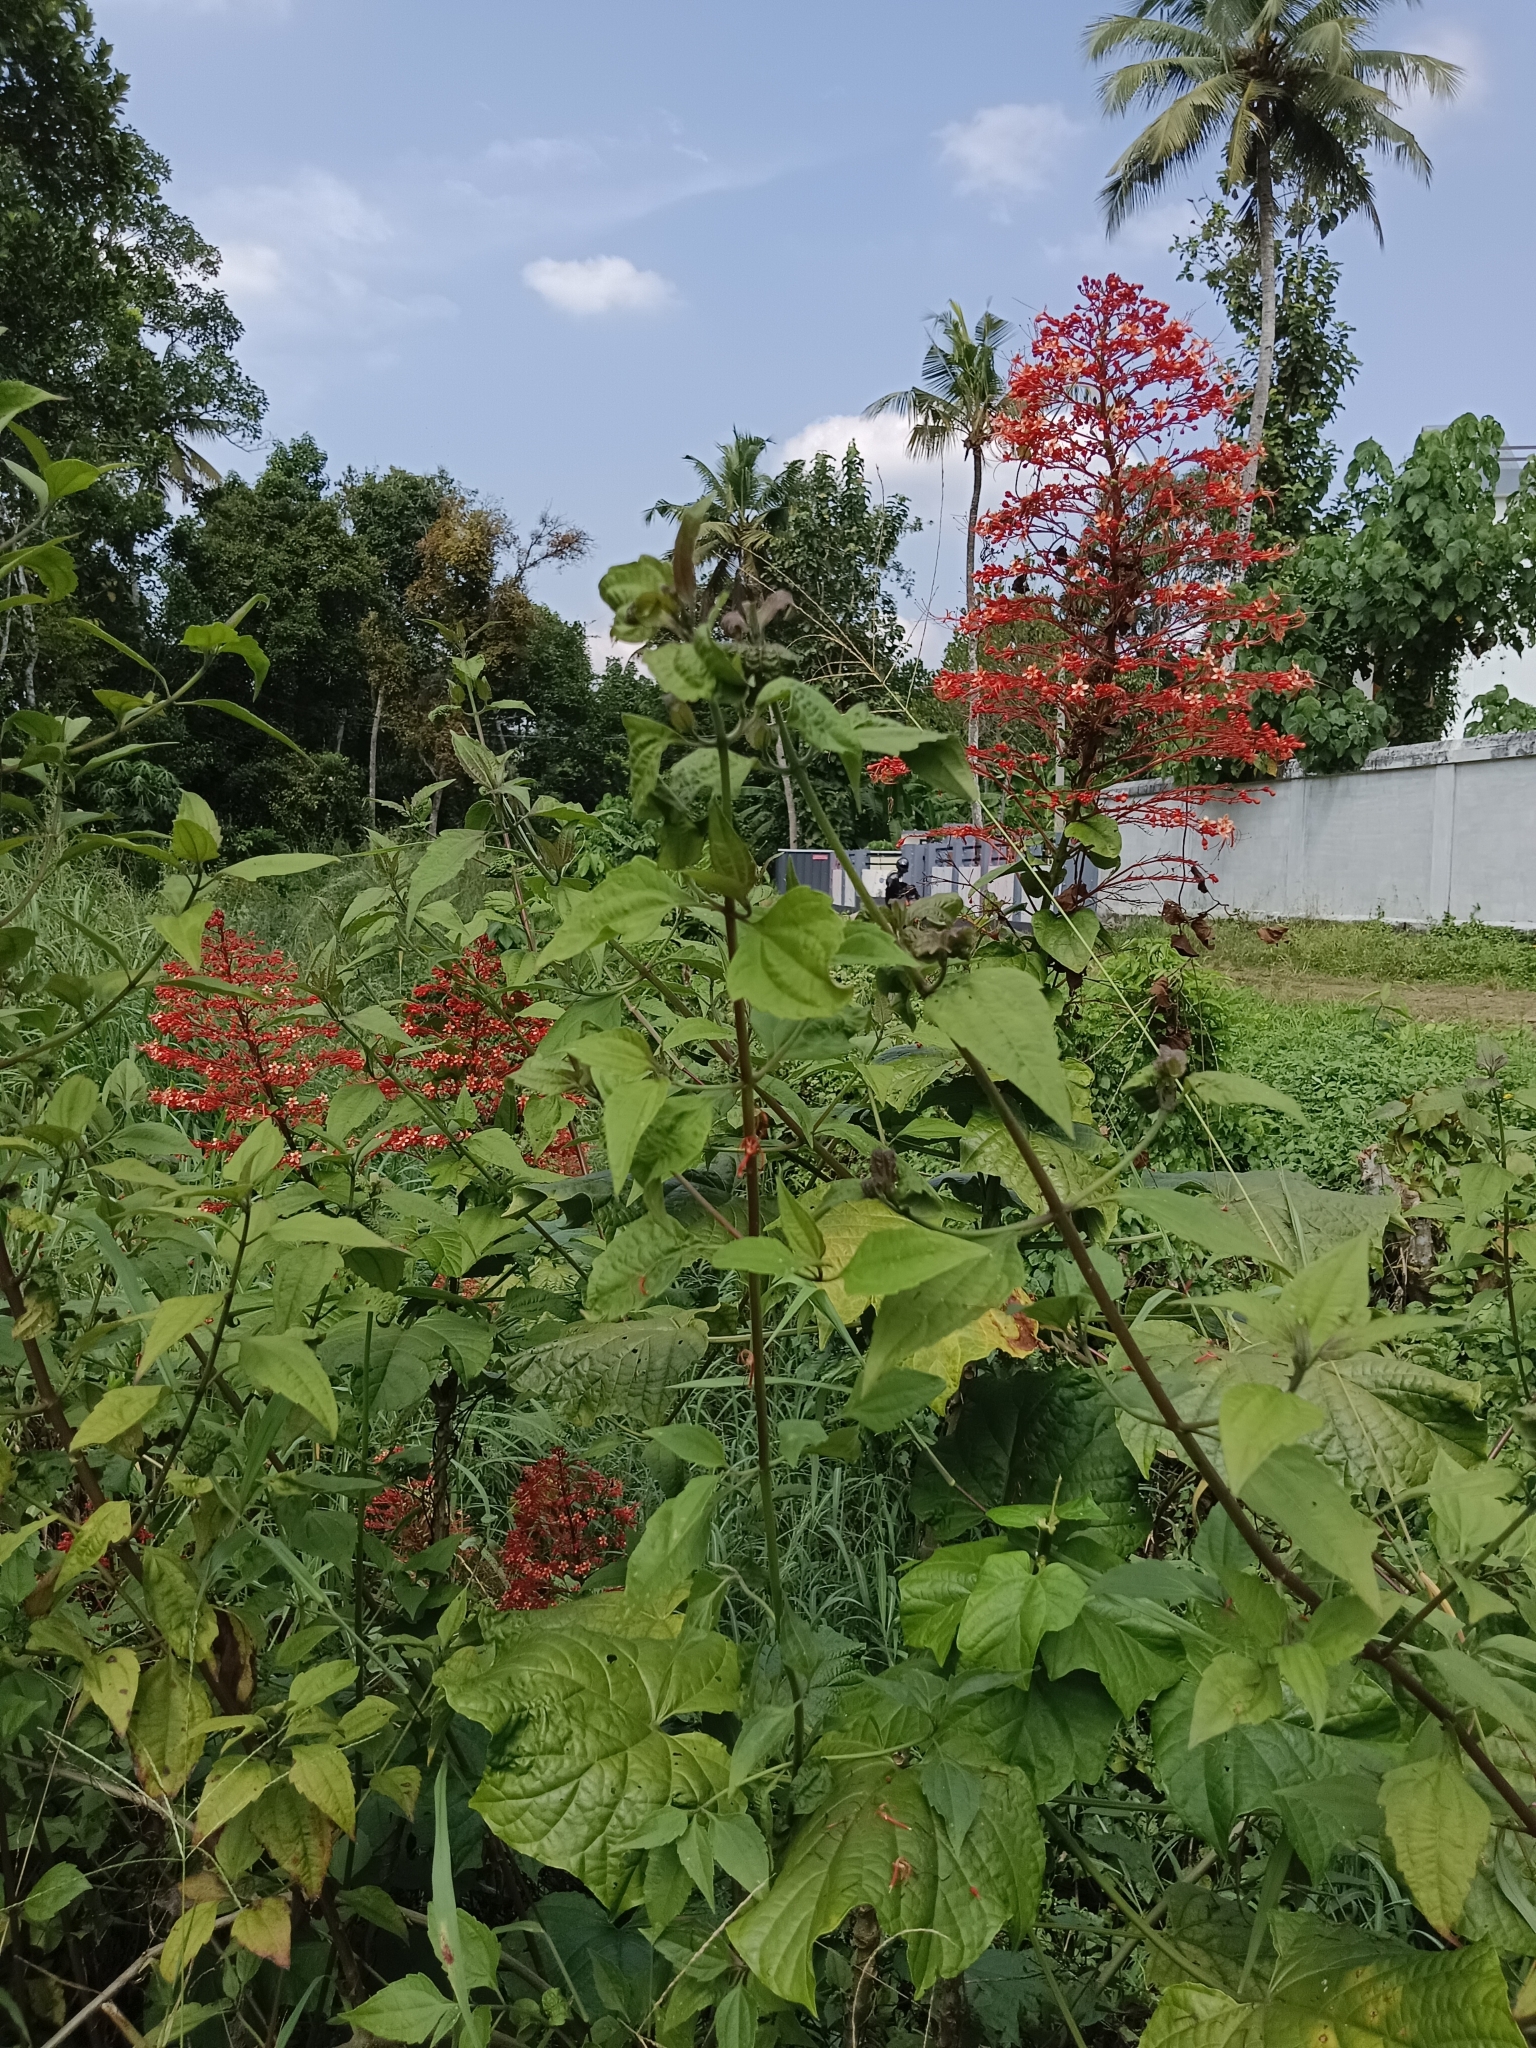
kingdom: Plantae
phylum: Tracheophyta
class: Magnoliopsida
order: Lamiales
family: Lamiaceae
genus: Clerodendrum
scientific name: Clerodendrum paniculatum
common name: Pagoda-flower
